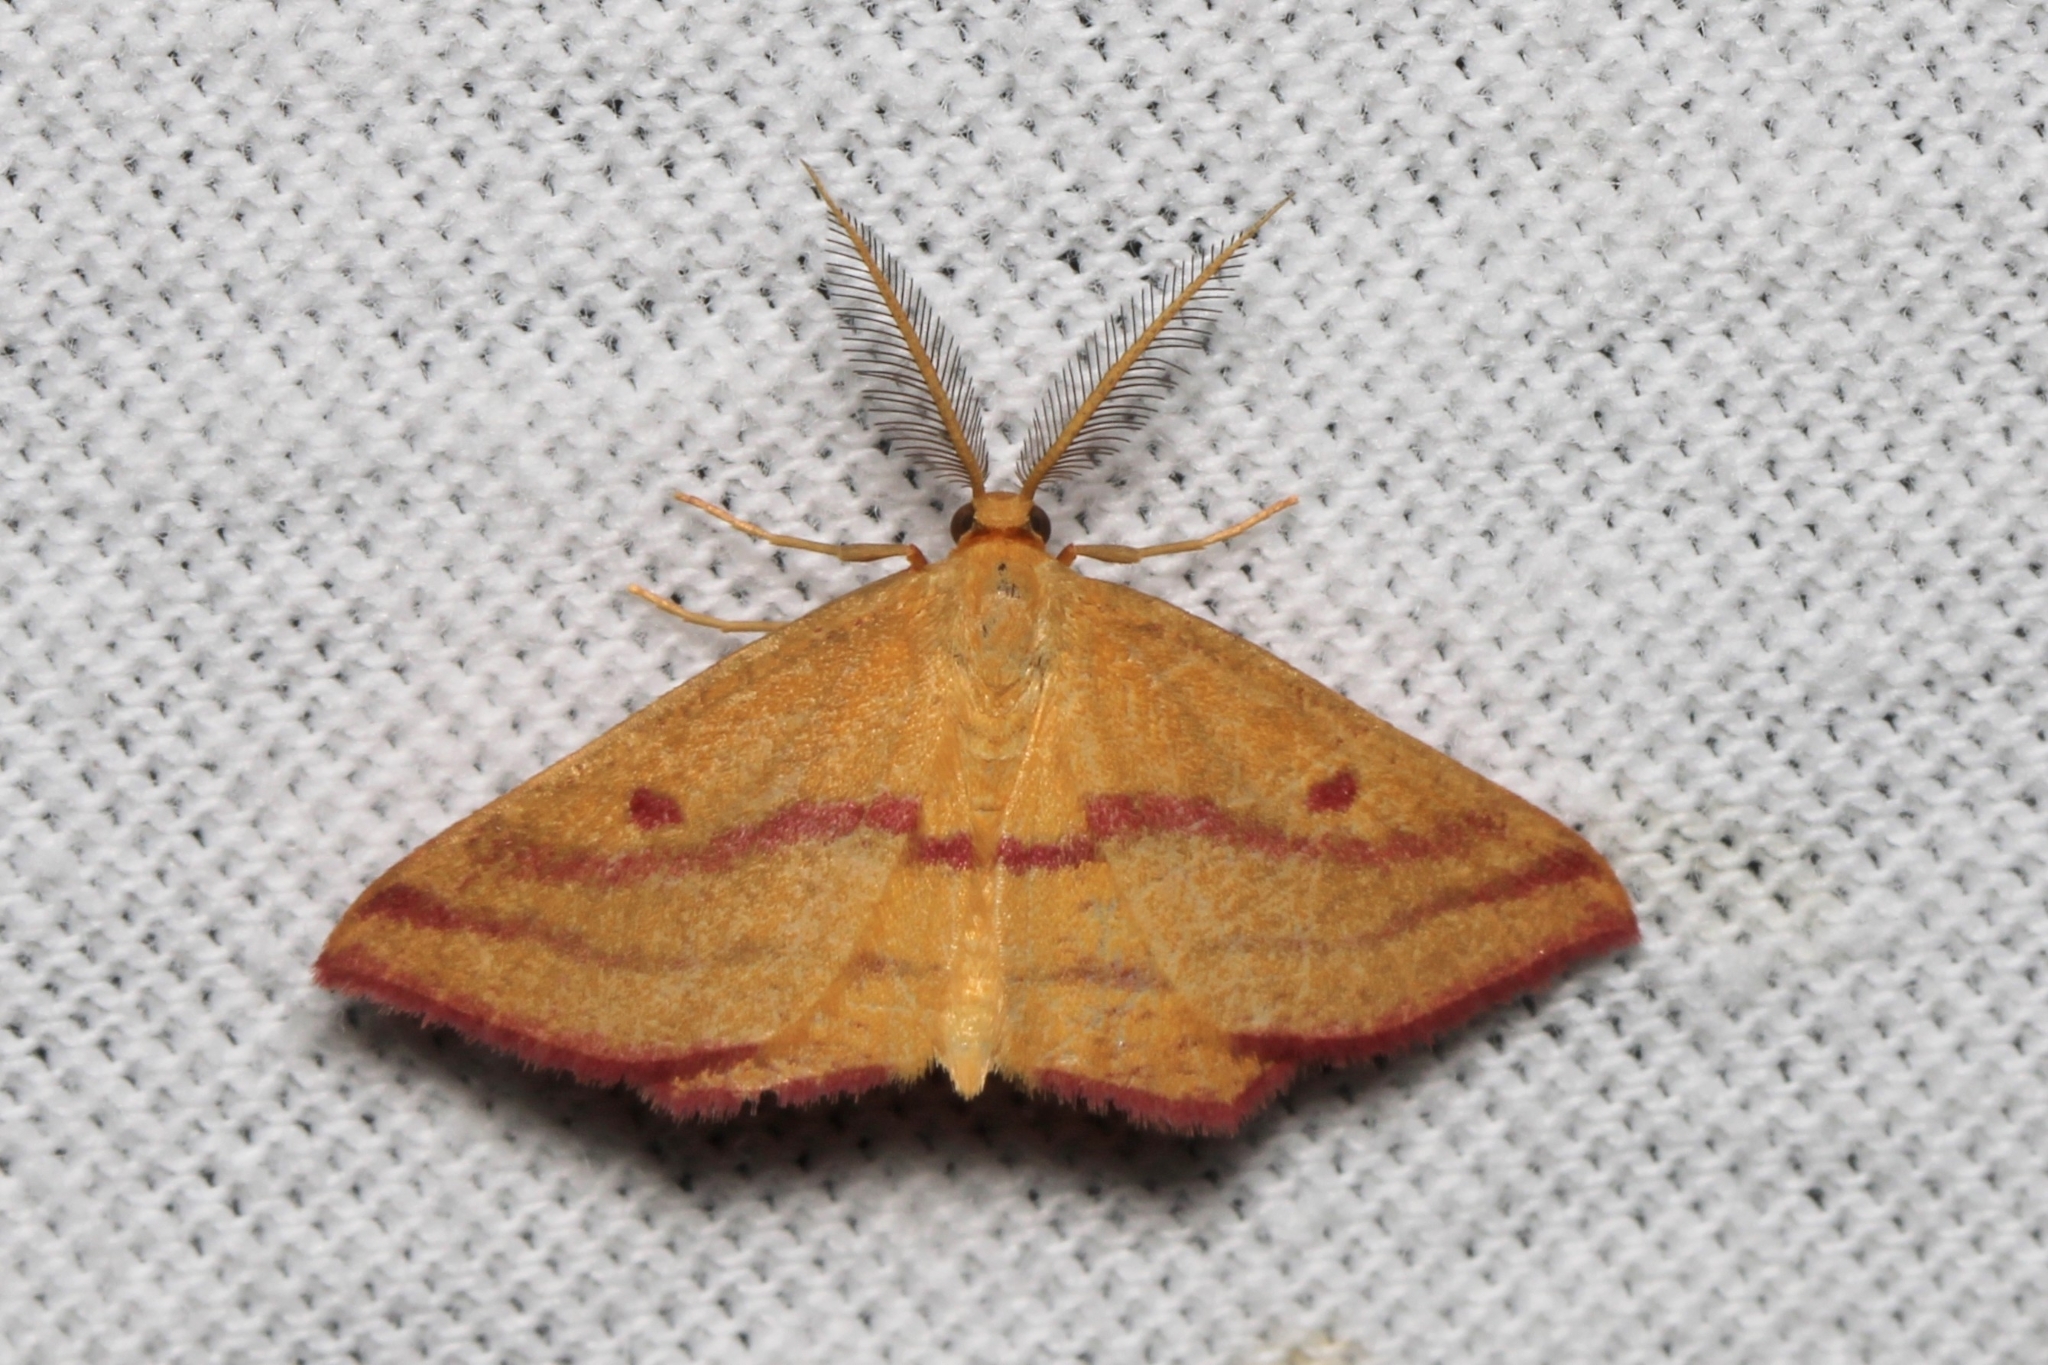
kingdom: Animalia
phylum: Arthropoda
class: Insecta
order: Lepidoptera
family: Geometridae
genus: Haematopis
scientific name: Haematopis grataria
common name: Chickweed geometer
